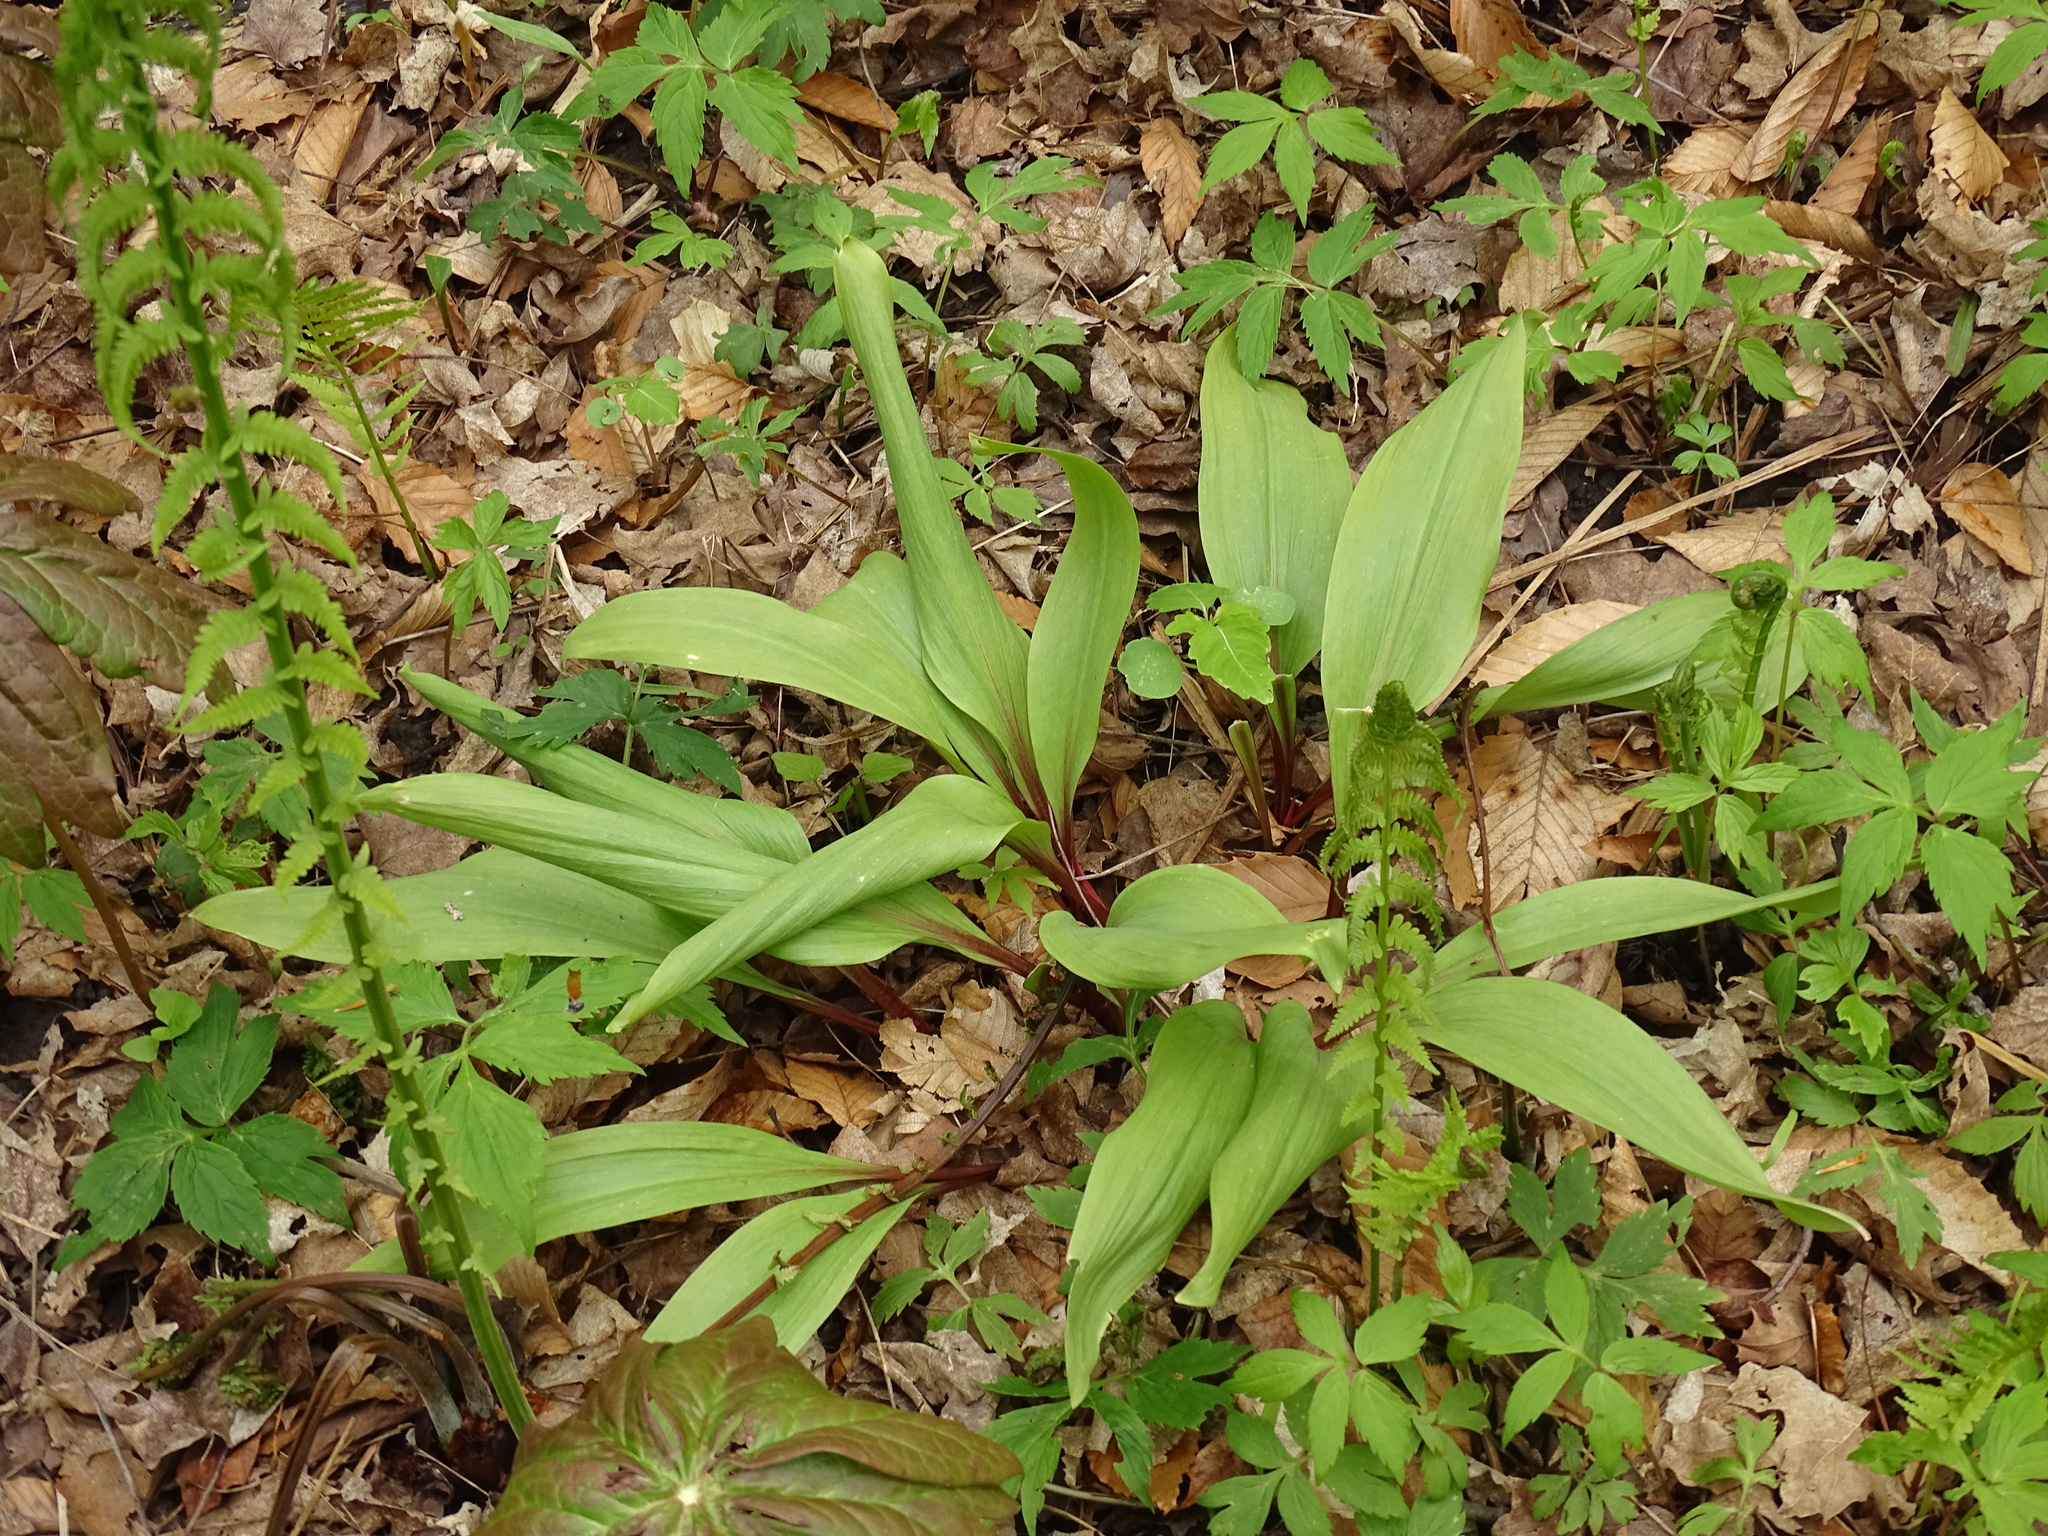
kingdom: Plantae
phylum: Tracheophyta
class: Liliopsida
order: Asparagales
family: Amaryllidaceae
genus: Allium
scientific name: Allium tricoccum
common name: Ramp
